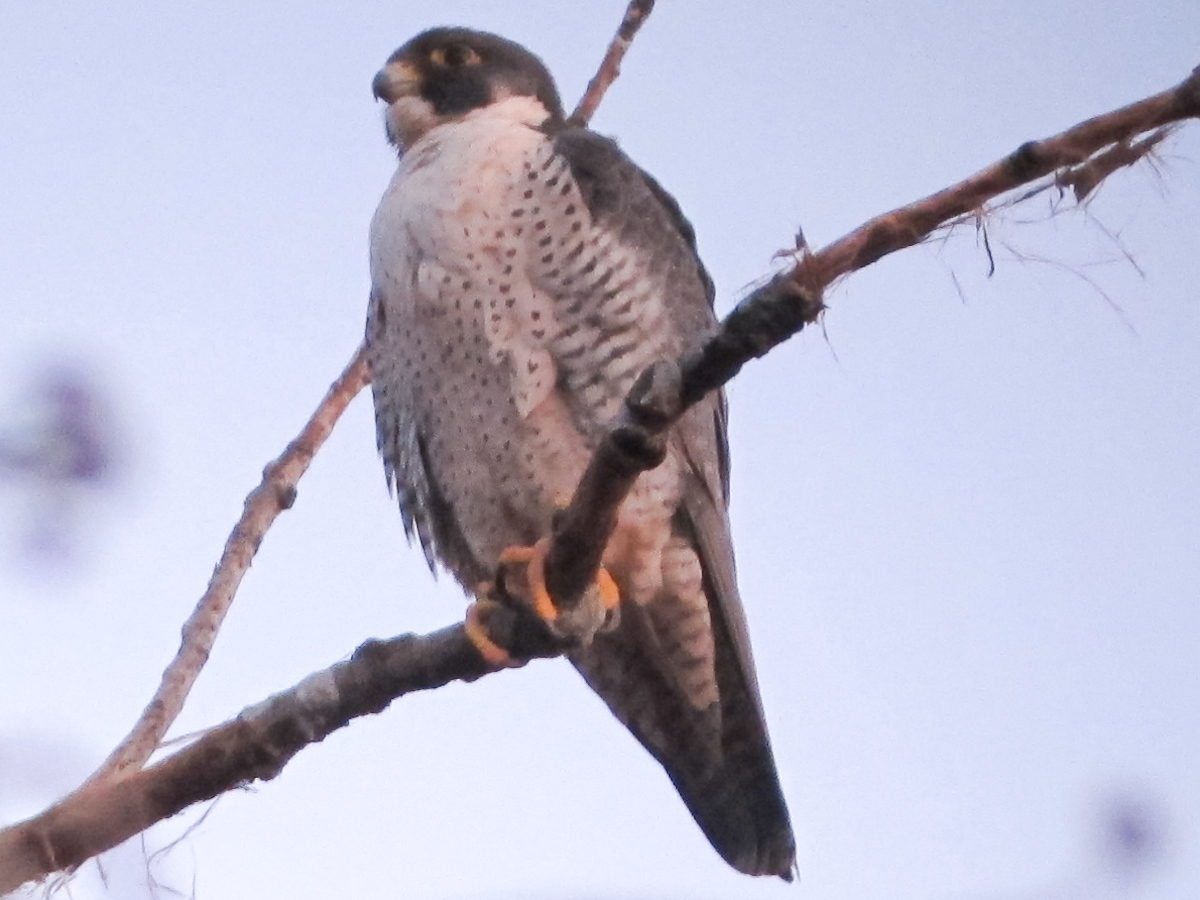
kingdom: Animalia
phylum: Chordata
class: Aves
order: Falconiformes
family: Falconidae
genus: Falco
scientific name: Falco peregrinus
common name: Peregrine falcon
